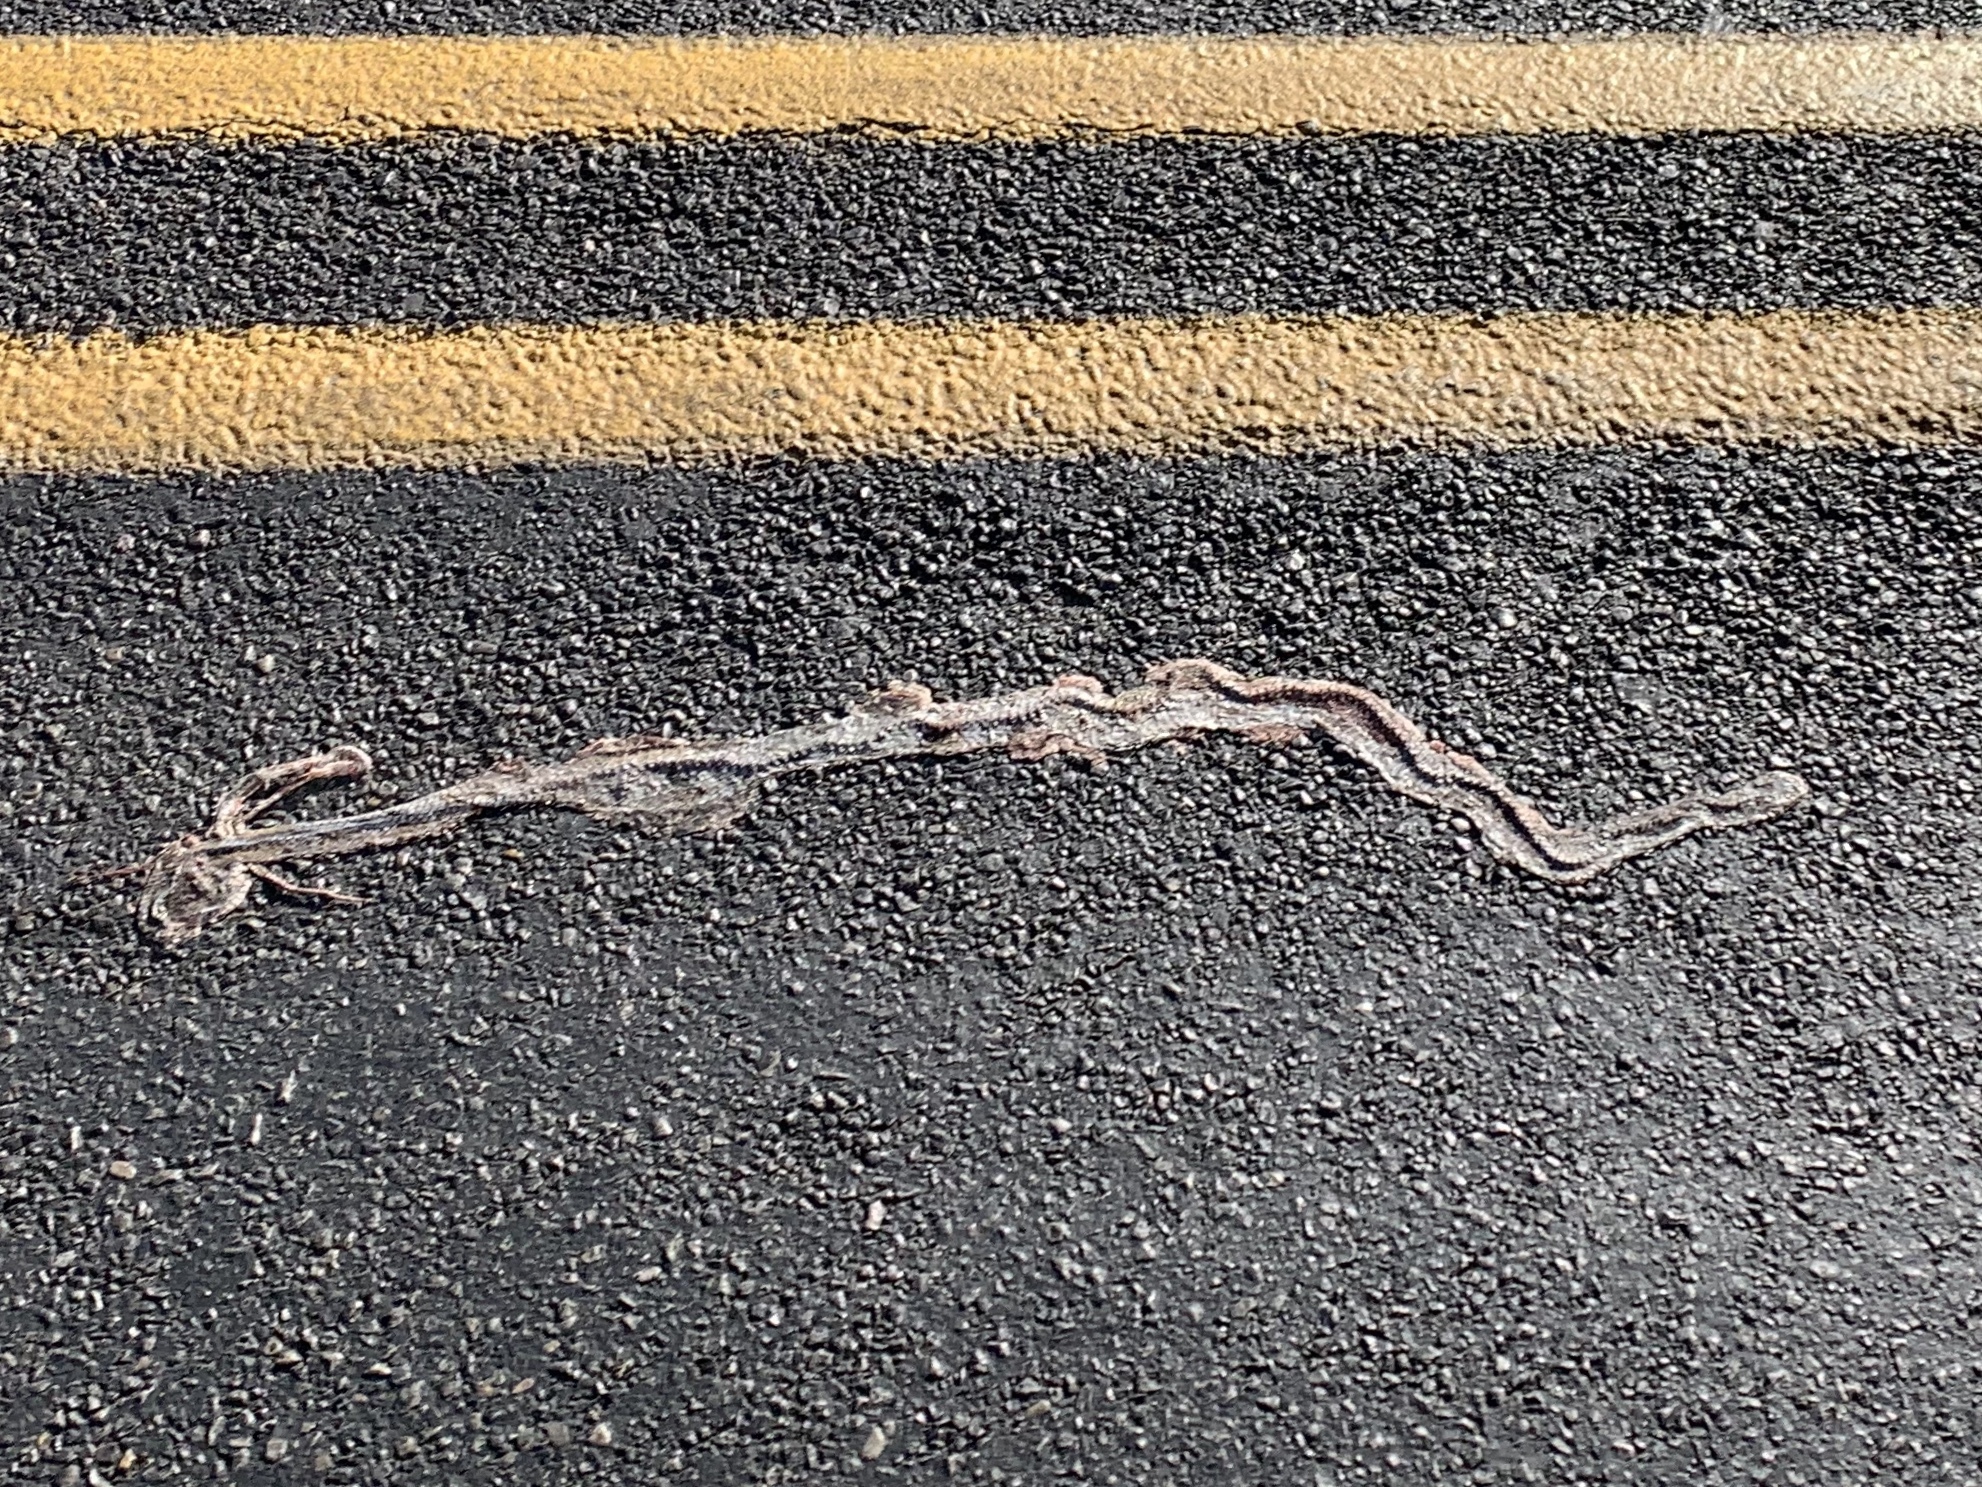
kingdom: Animalia
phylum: Chordata
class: Squamata
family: Colubridae
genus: Masticophis
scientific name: Masticophis flagellum
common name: Coachwhip
